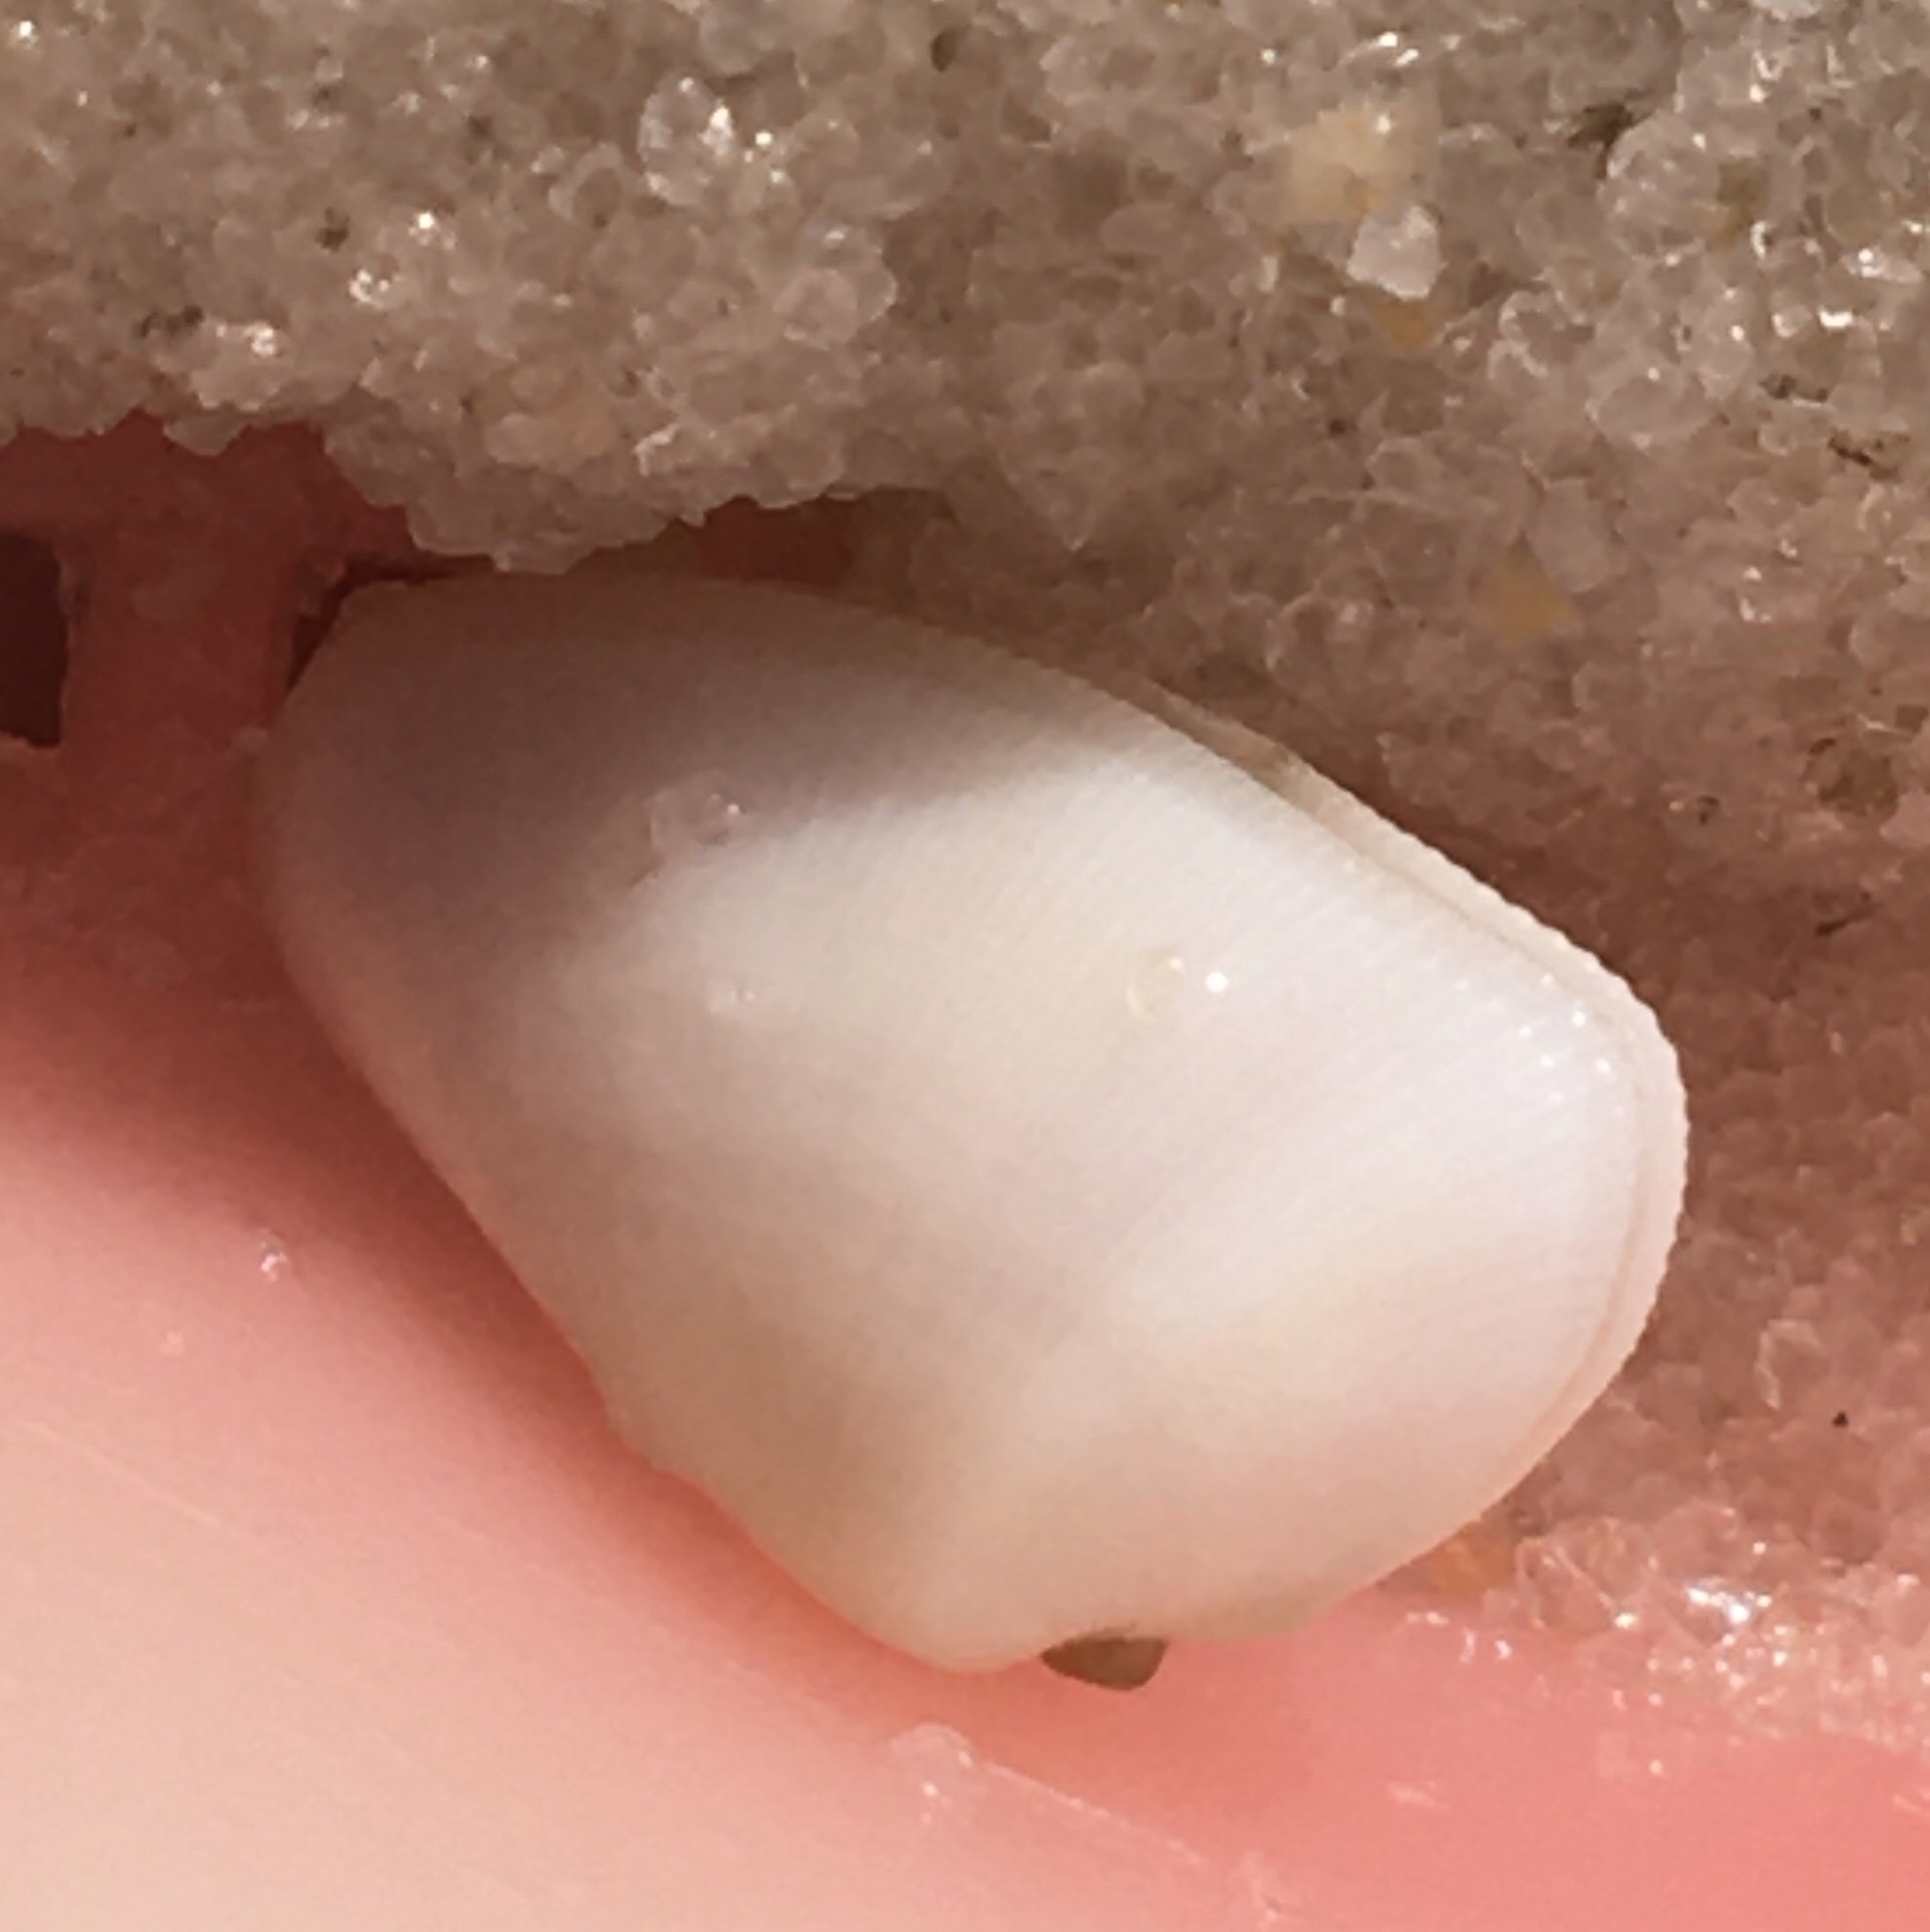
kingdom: Animalia
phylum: Mollusca
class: Bivalvia
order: Cardiida
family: Donacidae
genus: Donax
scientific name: Donax variabilis
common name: Butterfly shell
